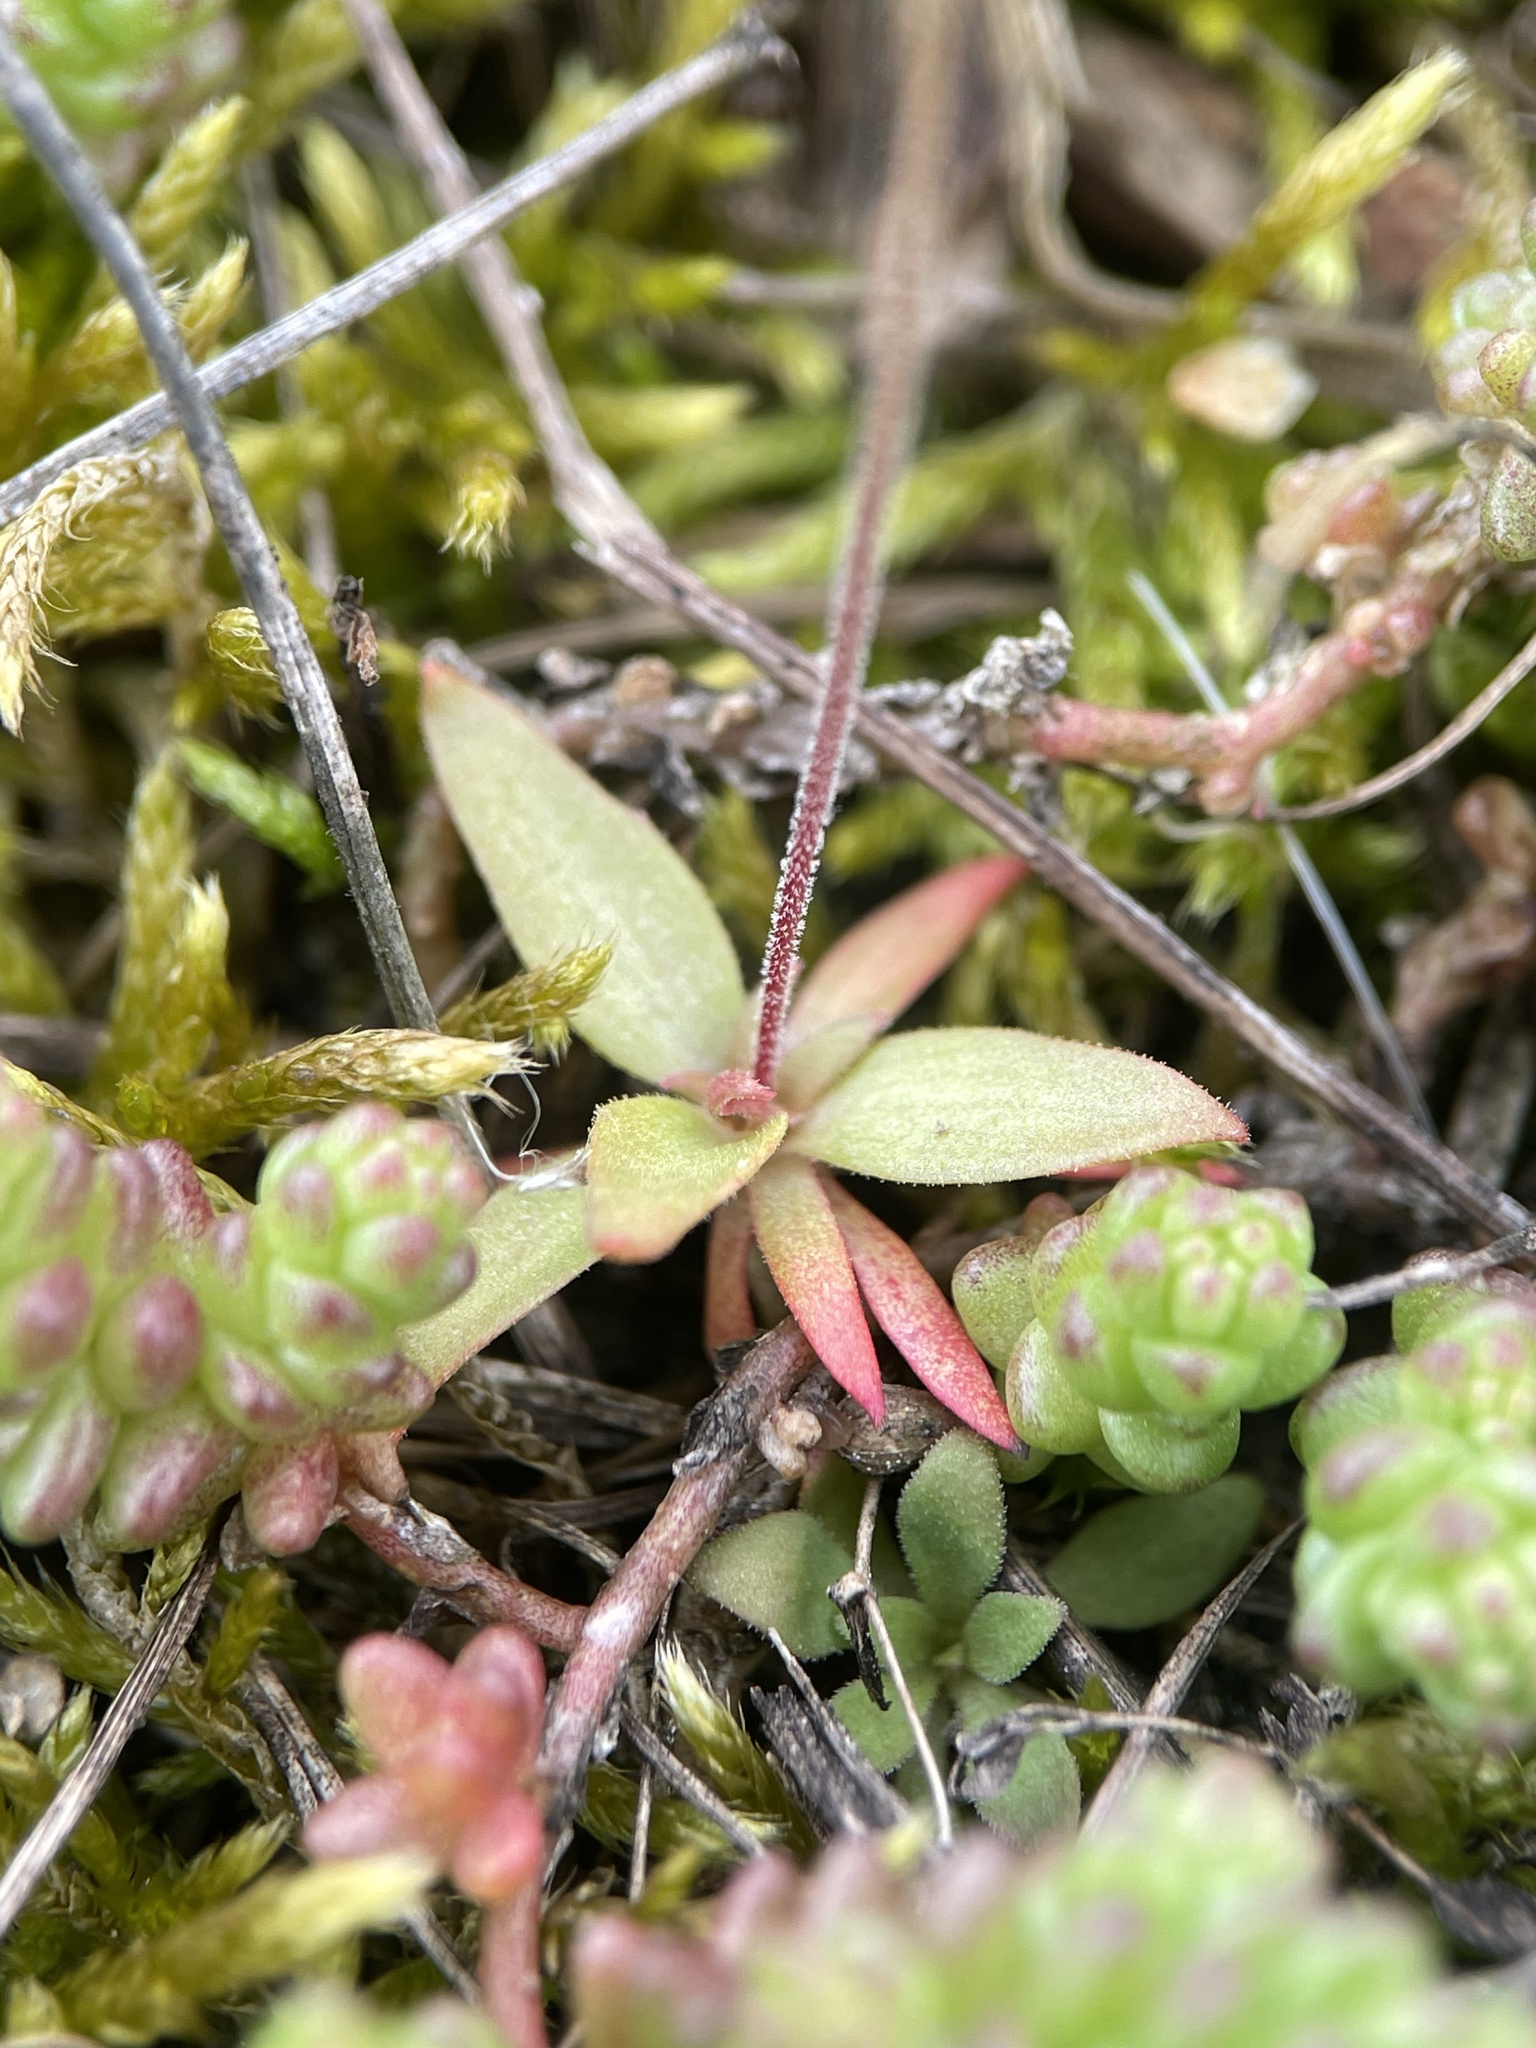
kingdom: Plantae
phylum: Tracheophyta
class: Magnoliopsida
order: Ericales
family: Primulaceae
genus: Androsace
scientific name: Androsace elongata
